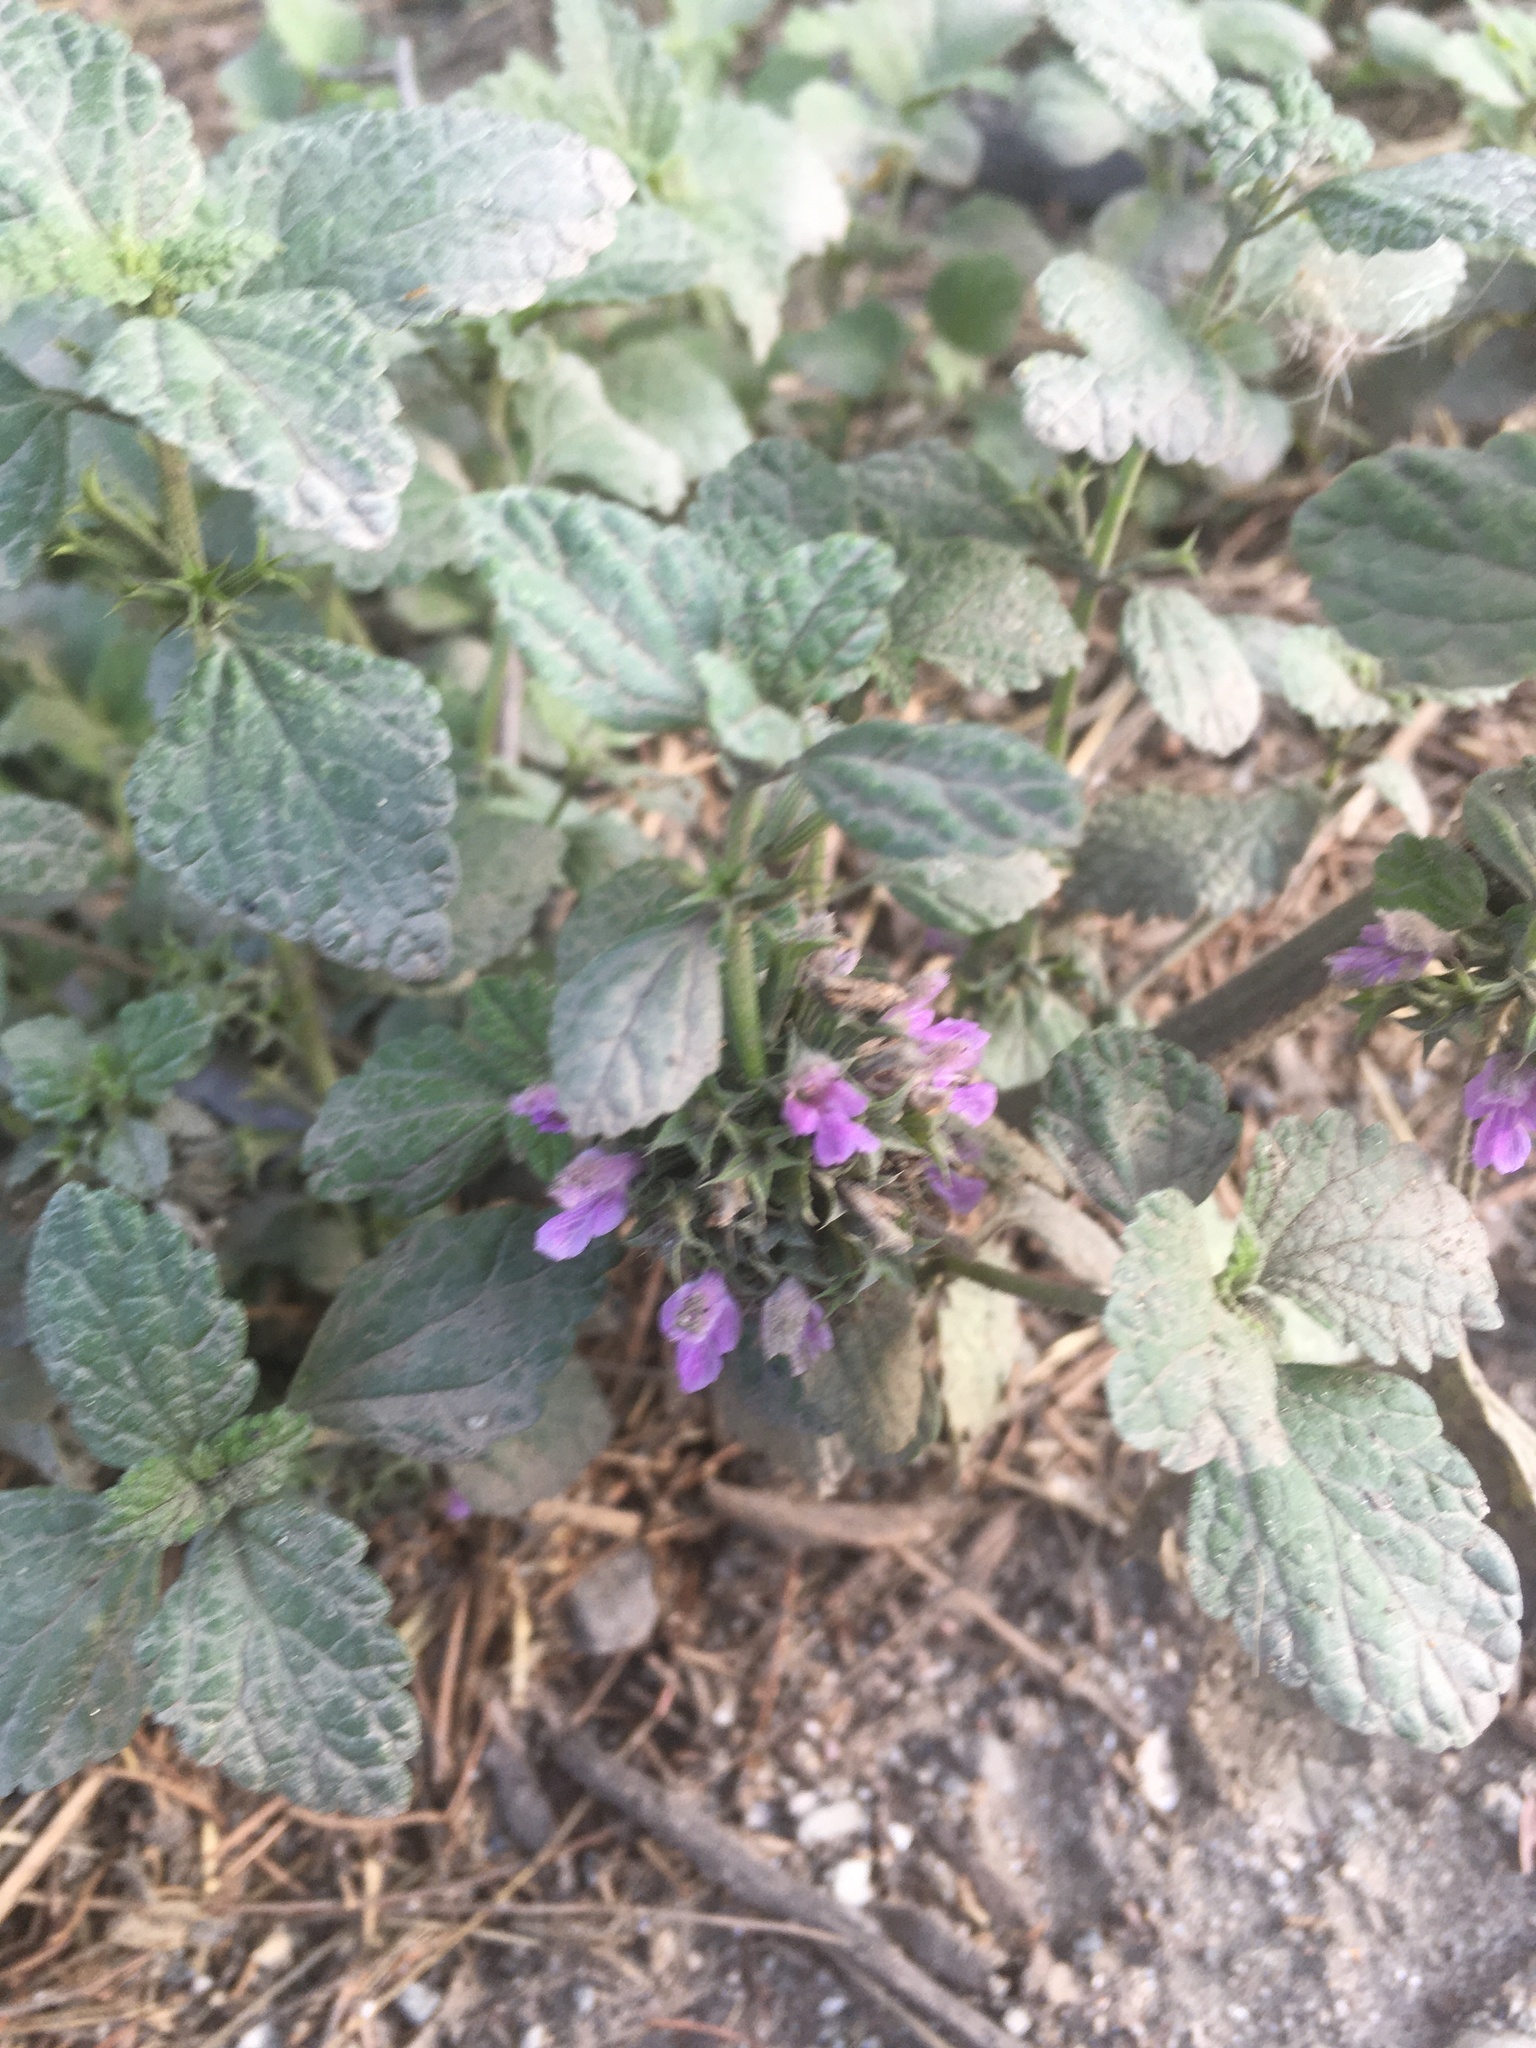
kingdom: Plantae
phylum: Tracheophyta
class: Magnoliopsida
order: Lamiales
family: Lamiaceae
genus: Ballota
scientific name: Ballota nigra
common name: Black horehound
